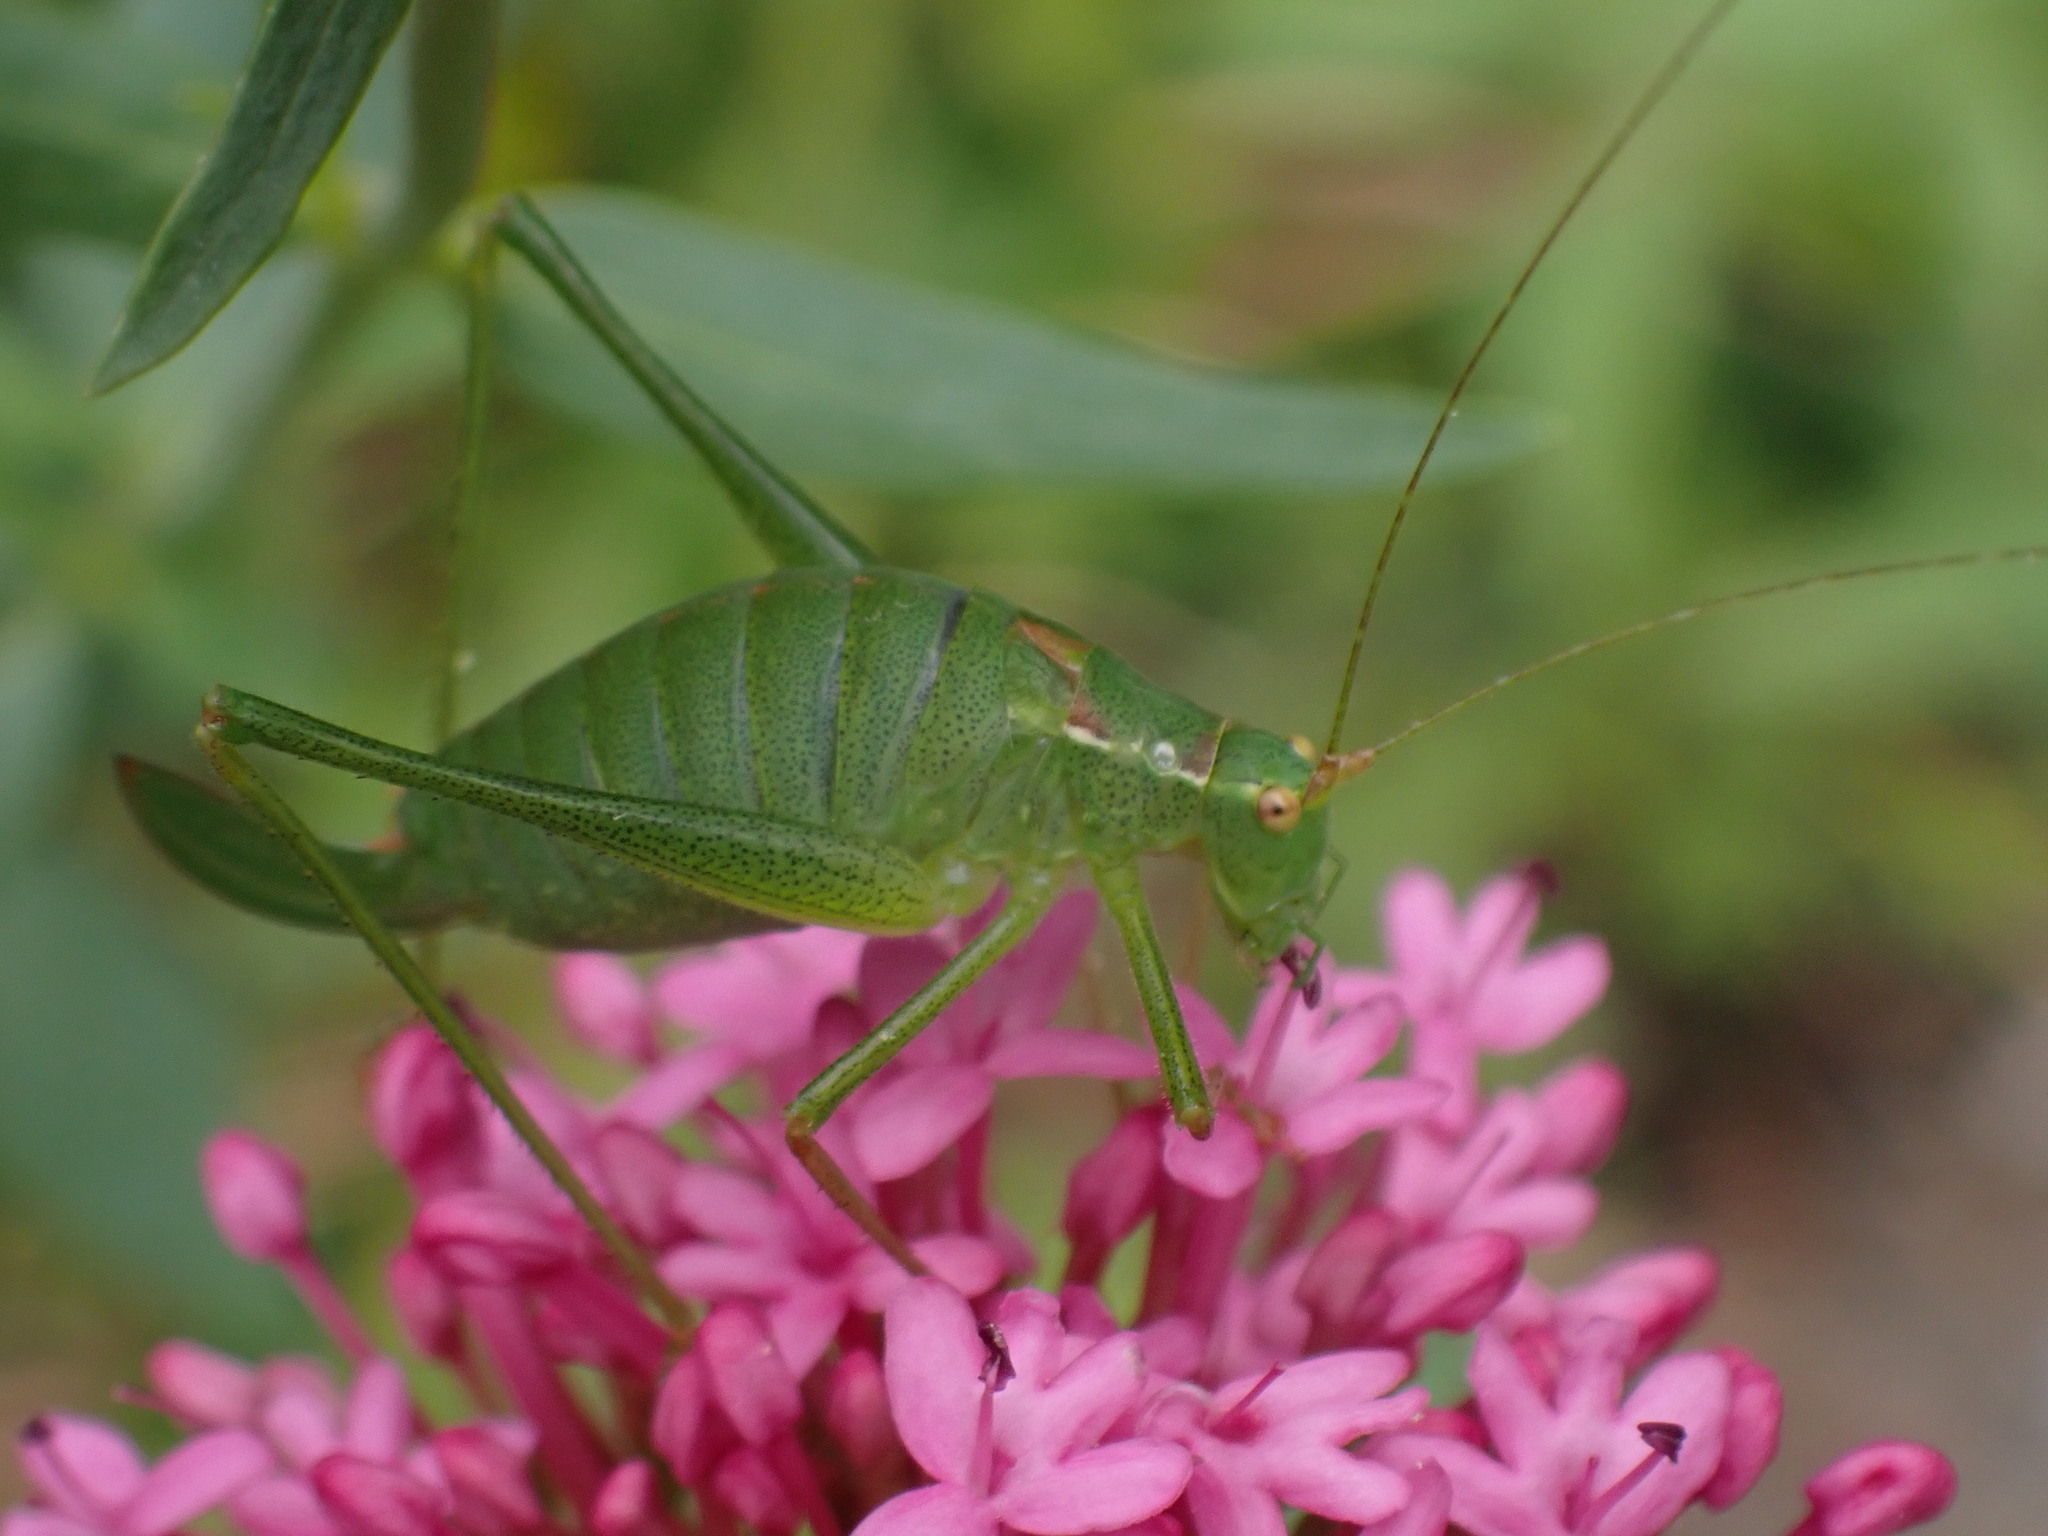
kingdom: Animalia
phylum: Arthropoda
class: Insecta
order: Orthoptera
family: Tettigoniidae
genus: Leptophyes
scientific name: Leptophyes punctatissima
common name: Speckled bush-cricket
